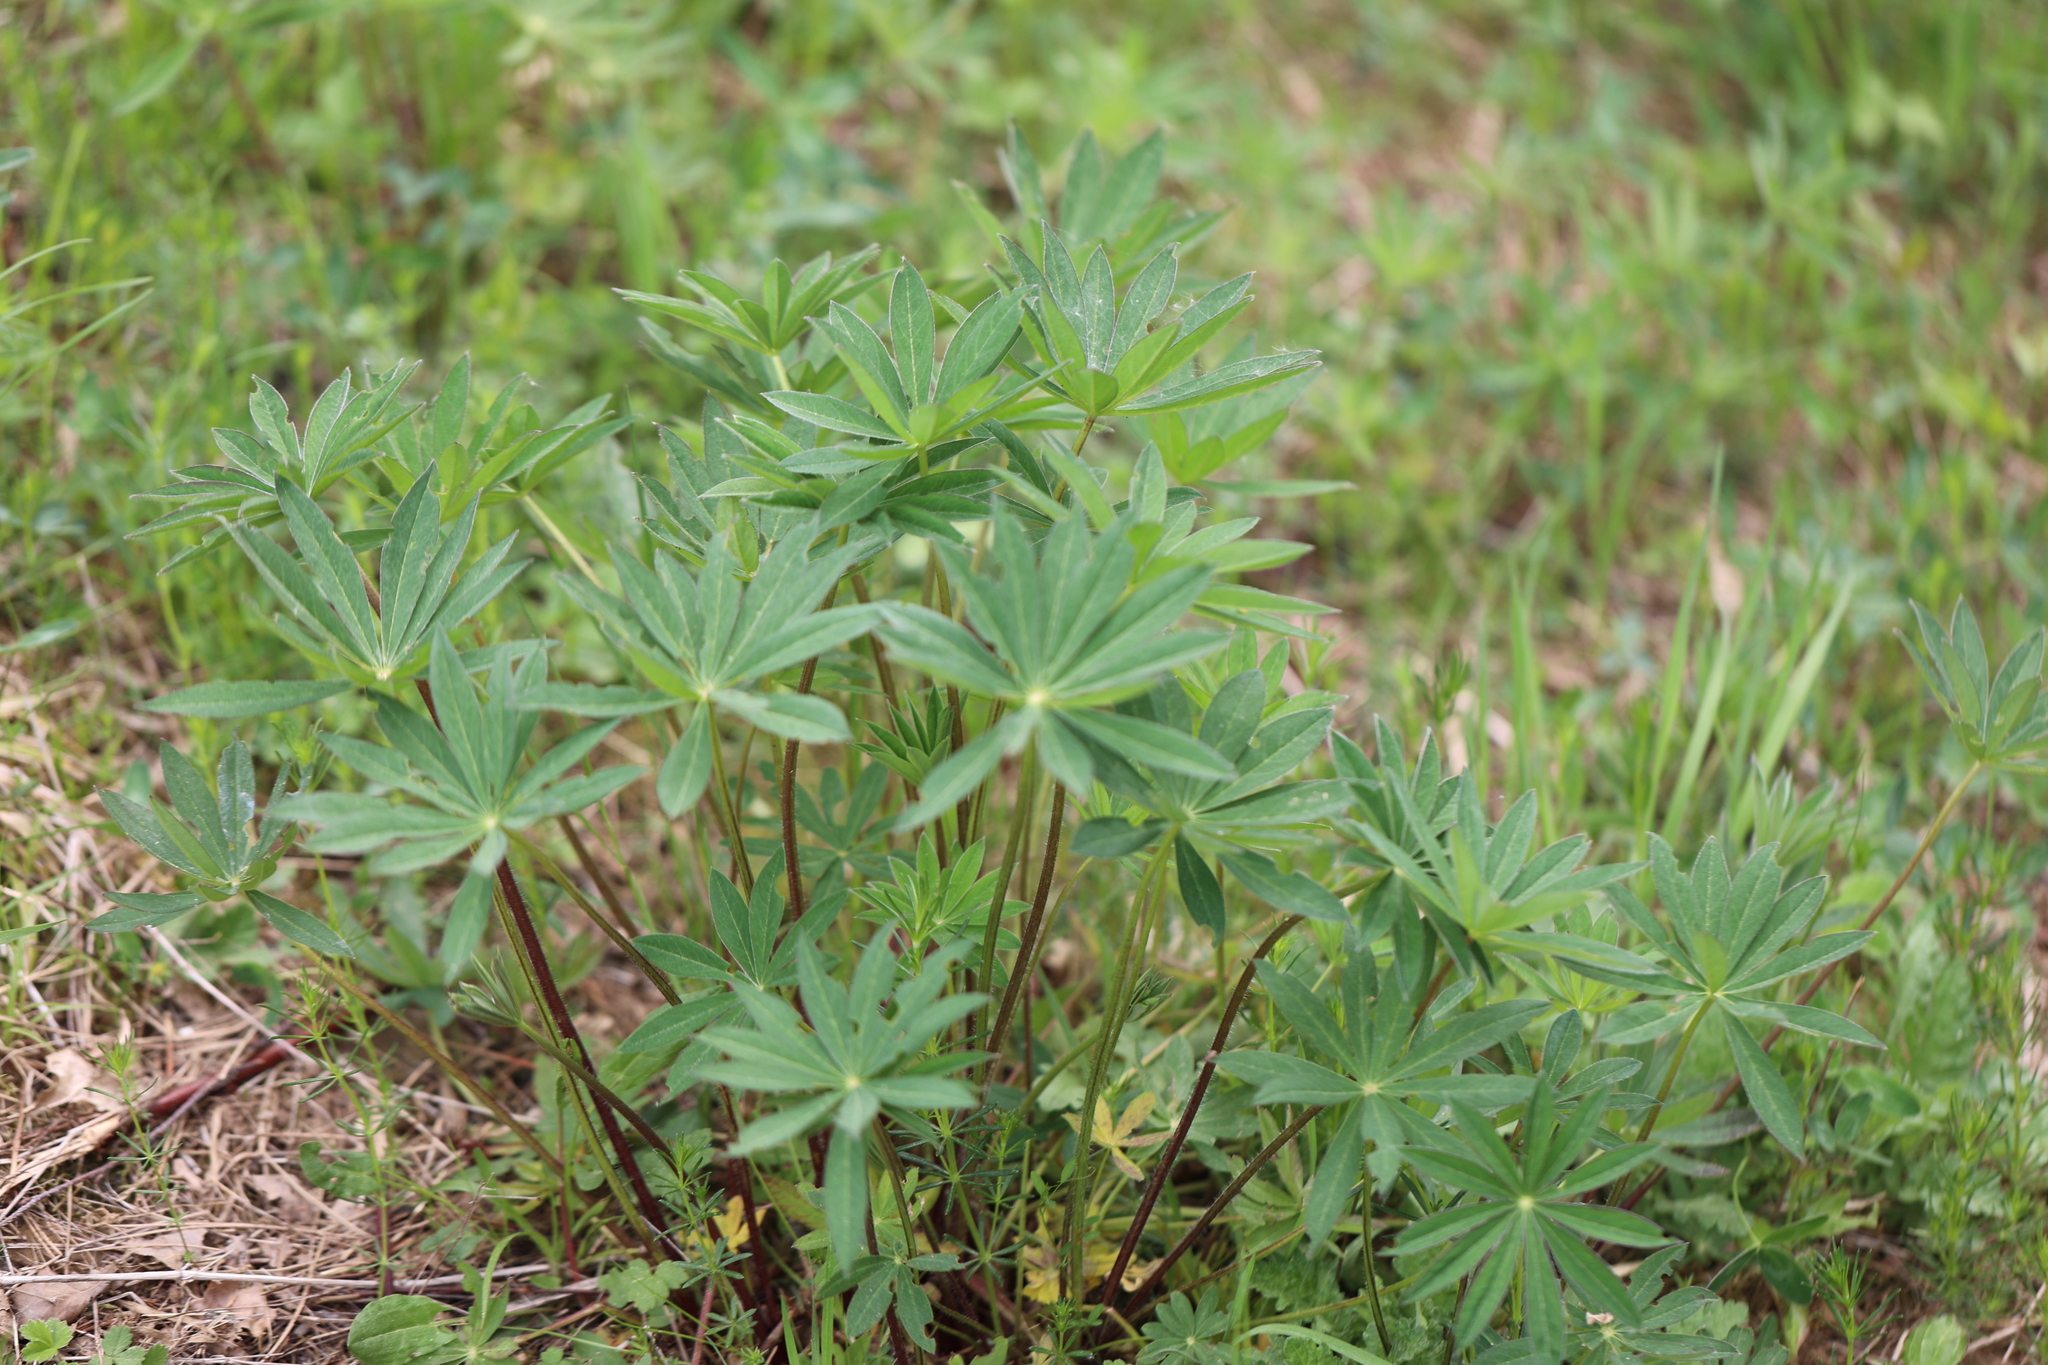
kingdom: Plantae
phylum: Tracheophyta
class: Magnoliopsida
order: Fabales
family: Fabaceae
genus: Lupinus
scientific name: Lupinus polyphyllus
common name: Garden lupin
